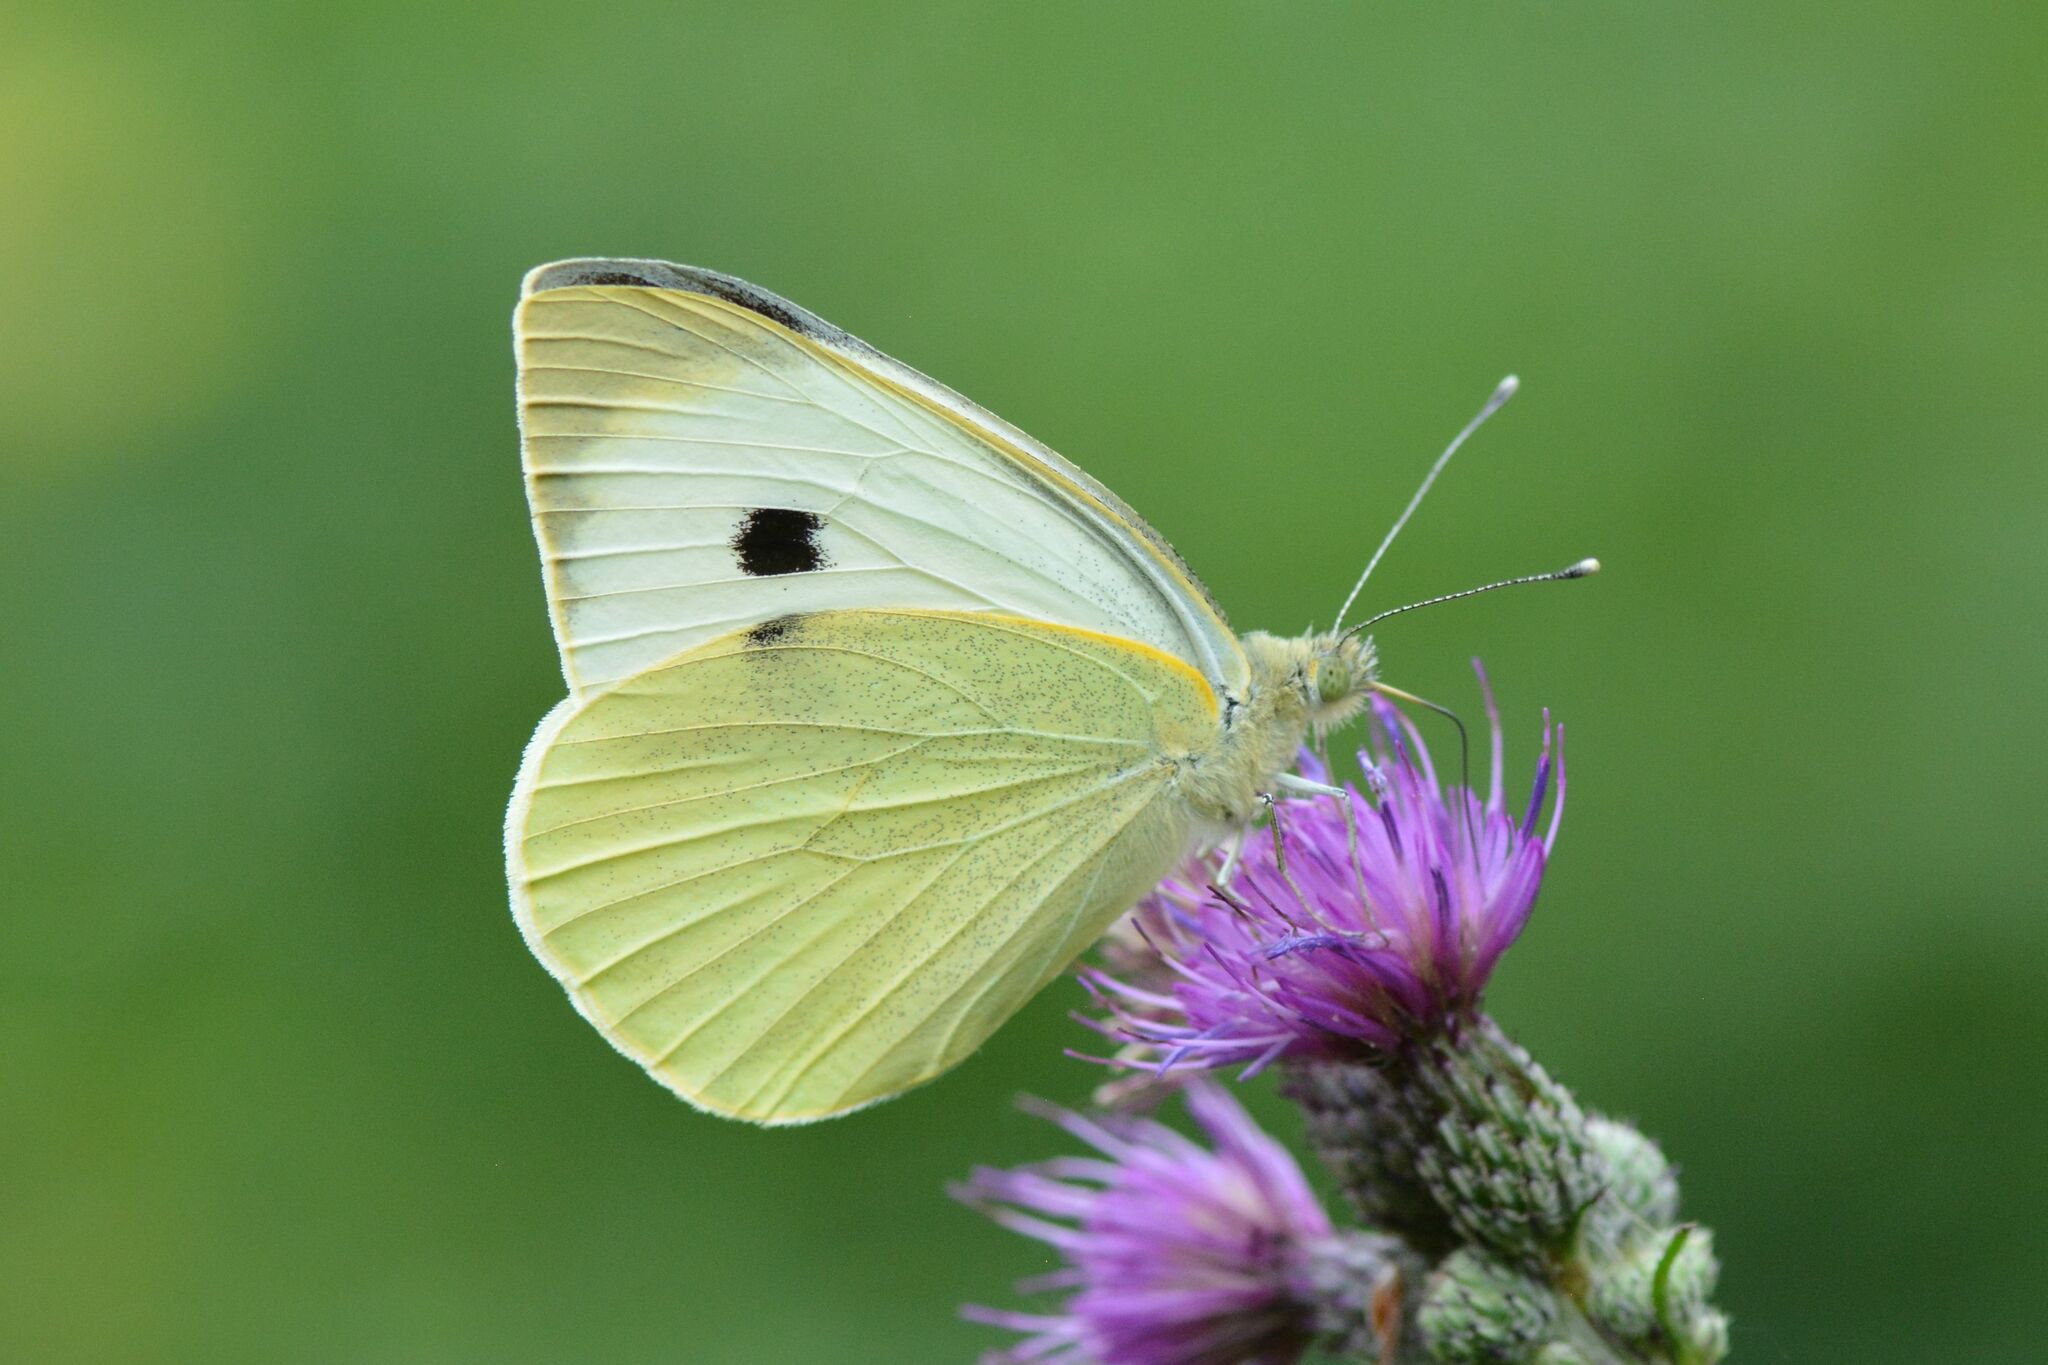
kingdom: Animalia
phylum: Arthropoda
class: Insecta
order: Lepidoptera
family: Pieridae
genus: Pieris
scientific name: Pieris brassicae
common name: Large white
